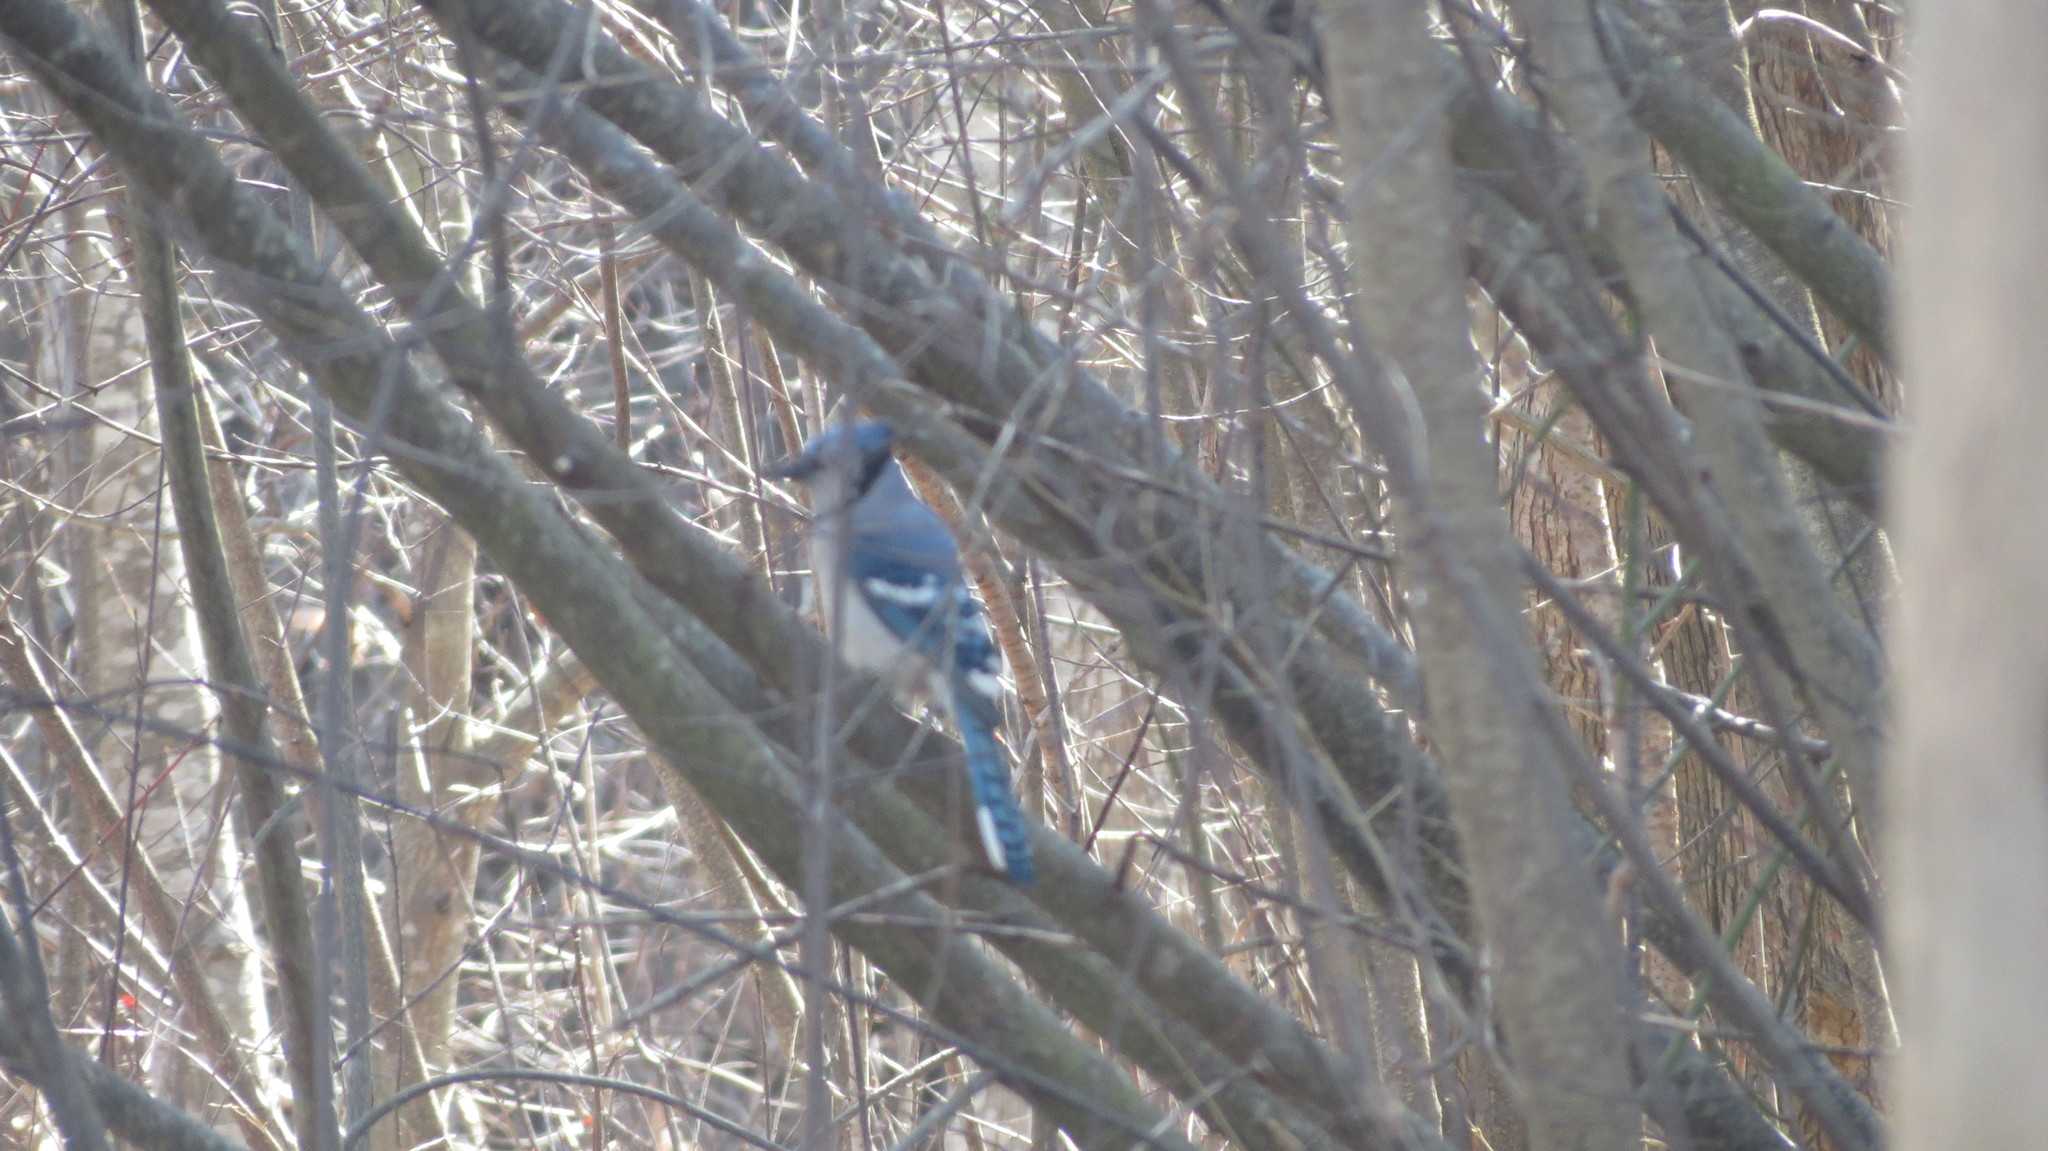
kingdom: Animalia
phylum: Chordata
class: Aves
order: Passeriformes
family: Corvidae
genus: Cyanocitta
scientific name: Cyanocitta cristata
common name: Blue jay
